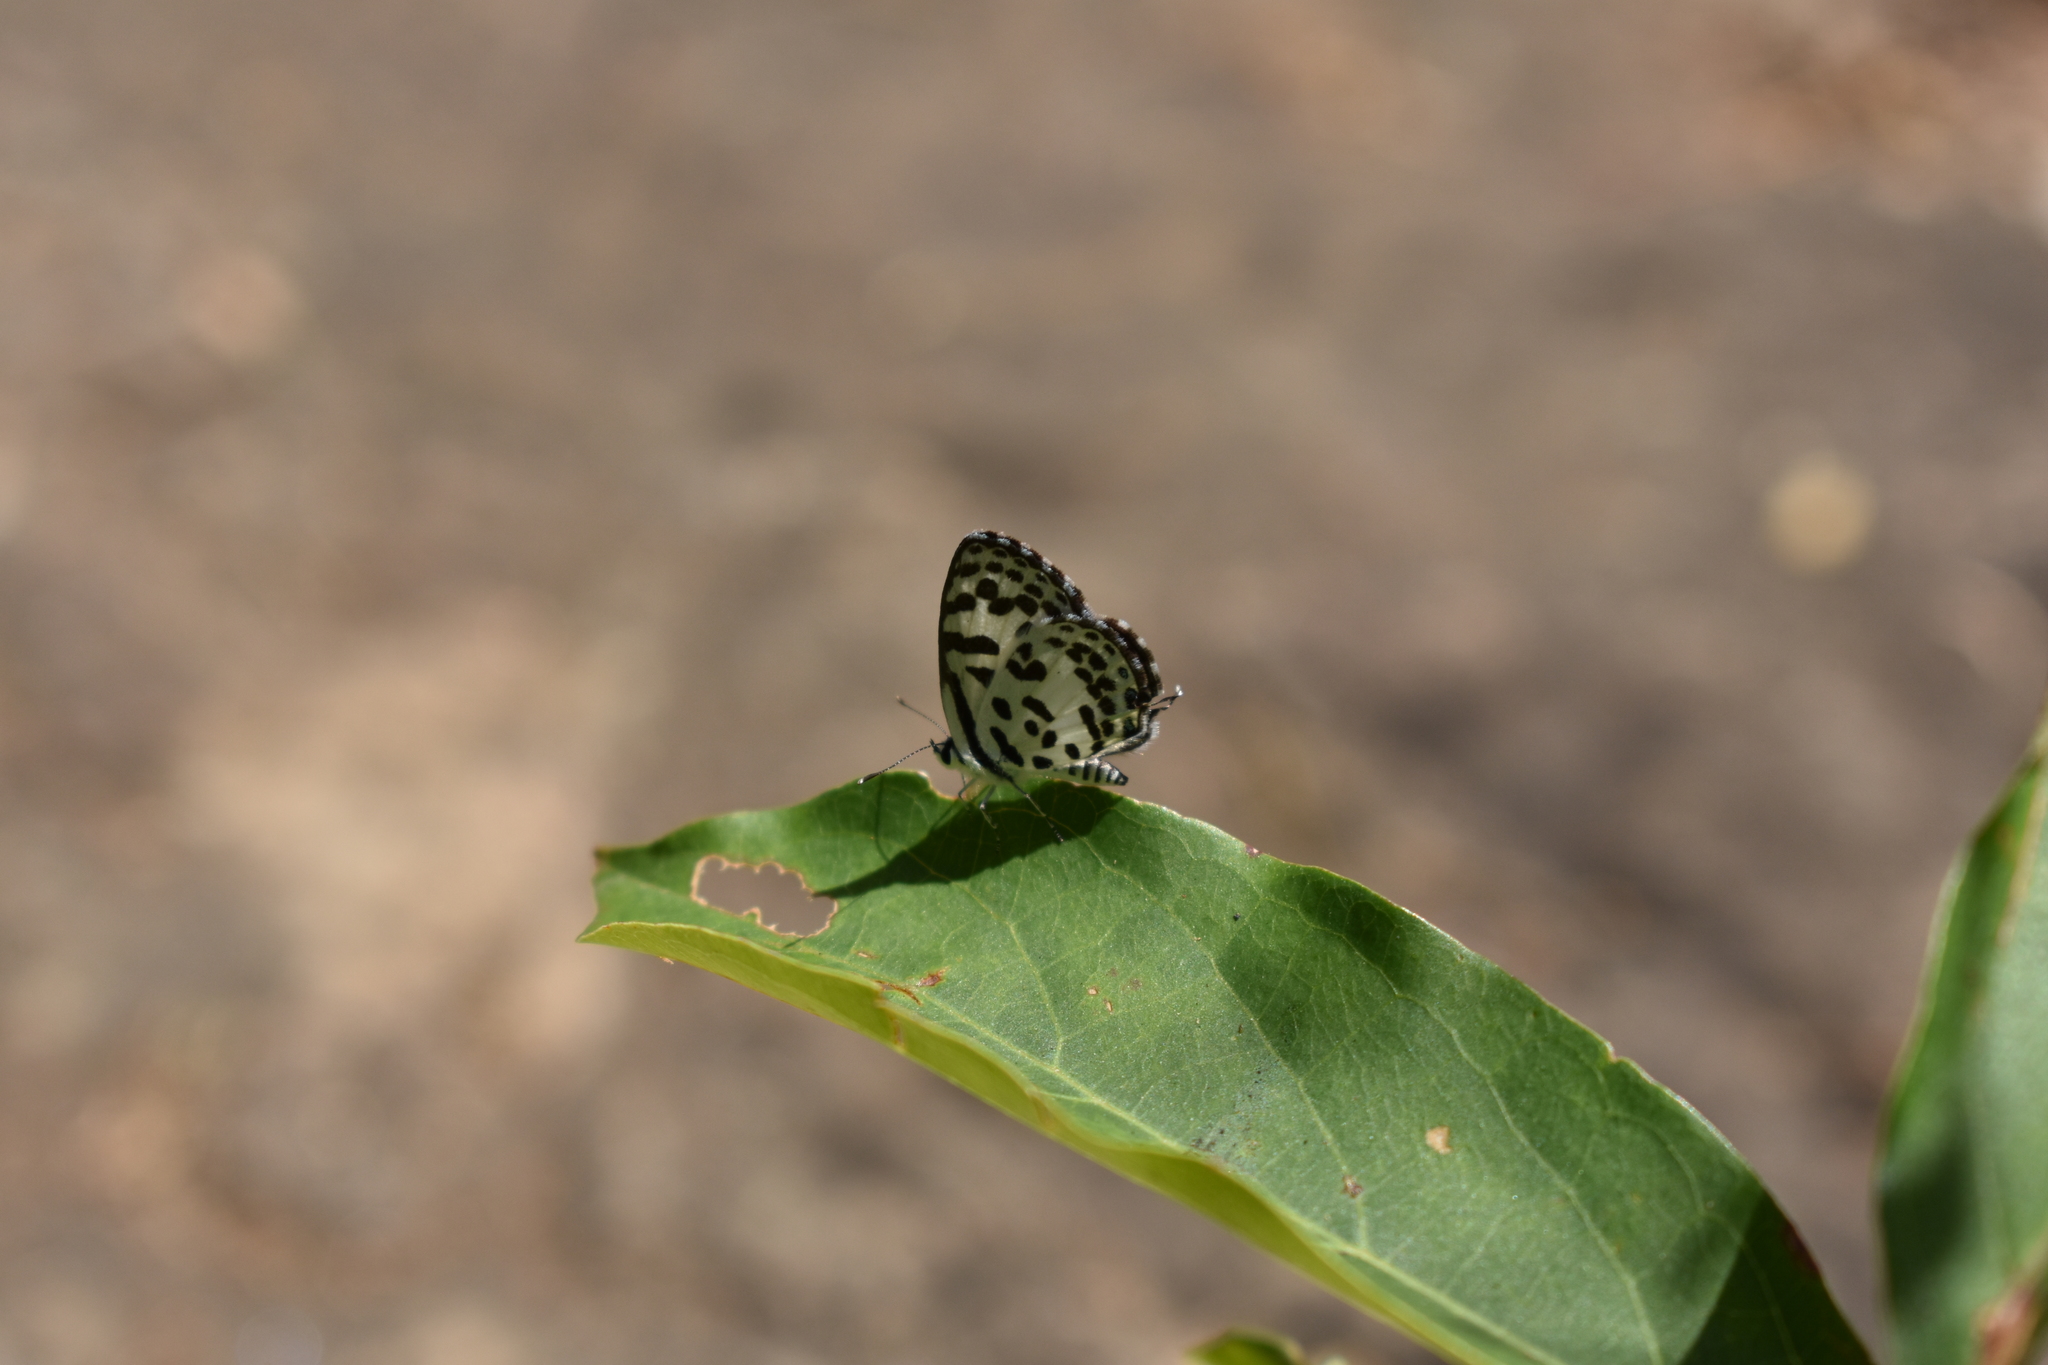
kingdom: Animalia
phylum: Arthropoda
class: Insecta
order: Lepidoptera
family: Lycaenidae
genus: Castalius
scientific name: Castalius rosimon
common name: Common pierrot
